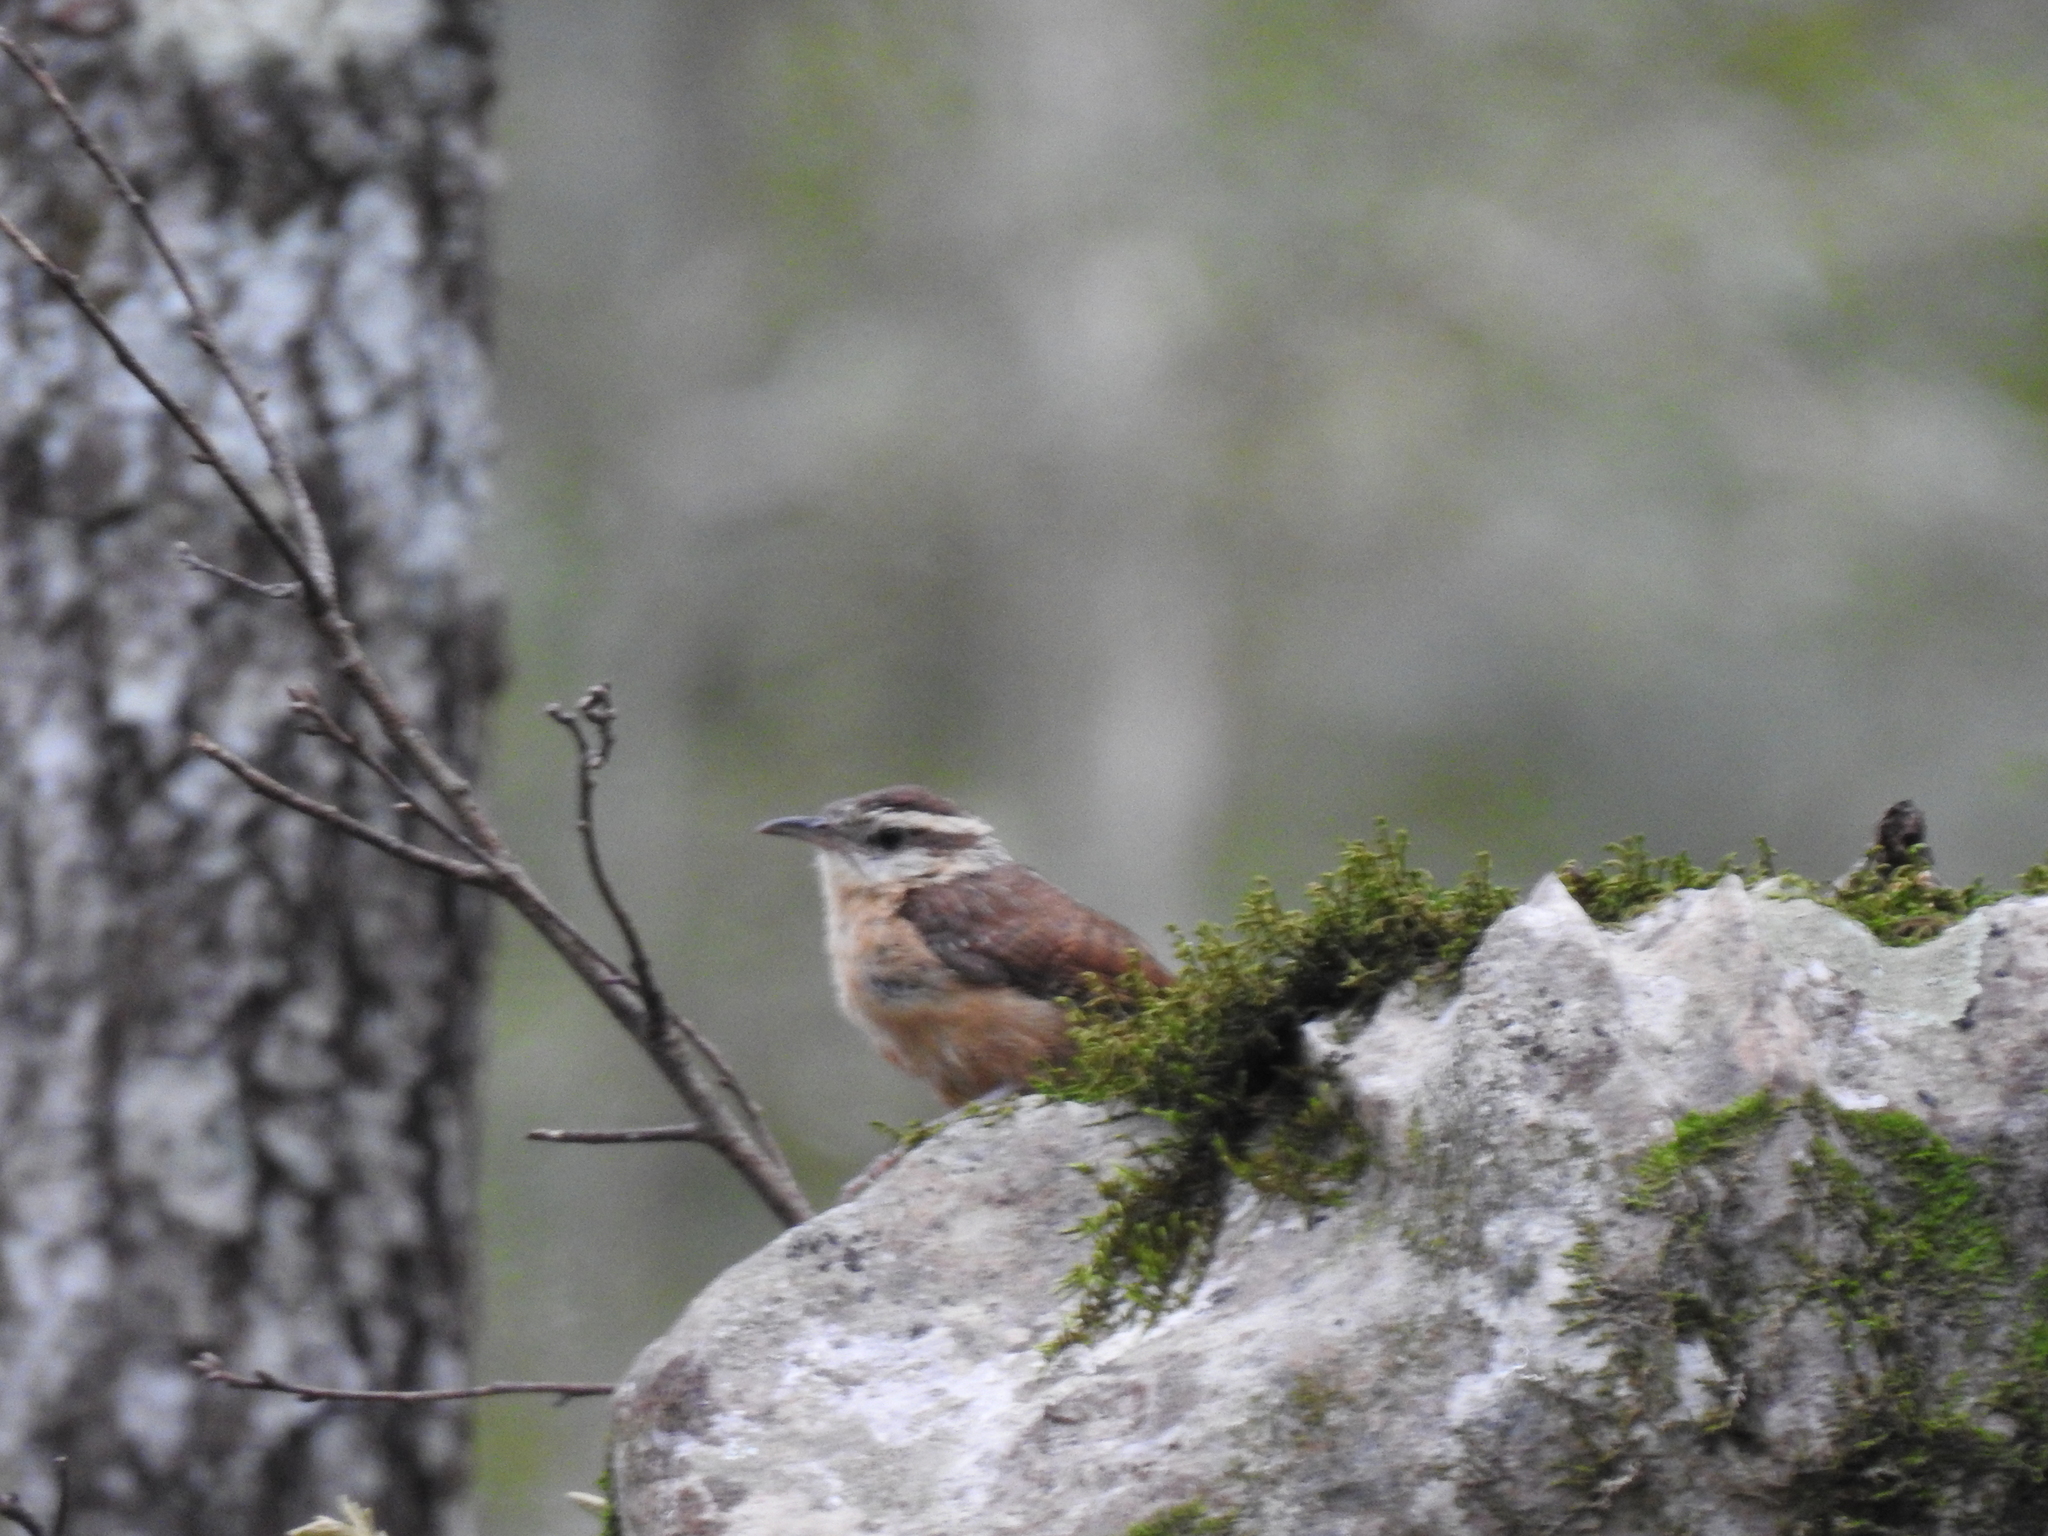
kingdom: Animalia
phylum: Chordata
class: Aves
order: Passeriformes
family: Troglodytidae
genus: Thryothorus
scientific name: Thryothorus ludovicianus
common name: Carolina wren
